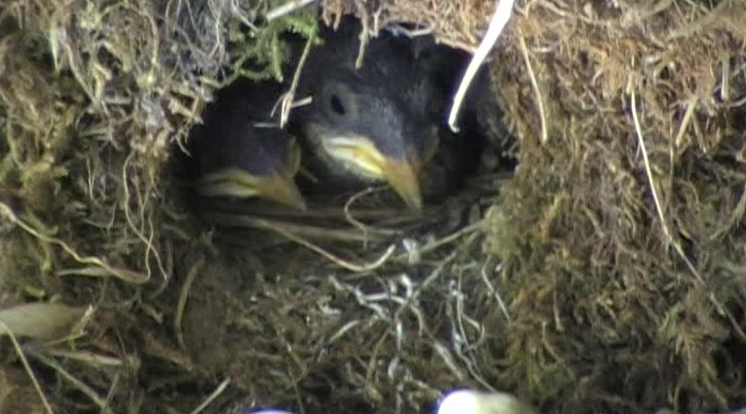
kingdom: Animalia
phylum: Chordata
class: Aves
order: Passeriformes
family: Cinclidae
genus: Cinclus
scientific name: Cinclus cinclus
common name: White-throated dipper
